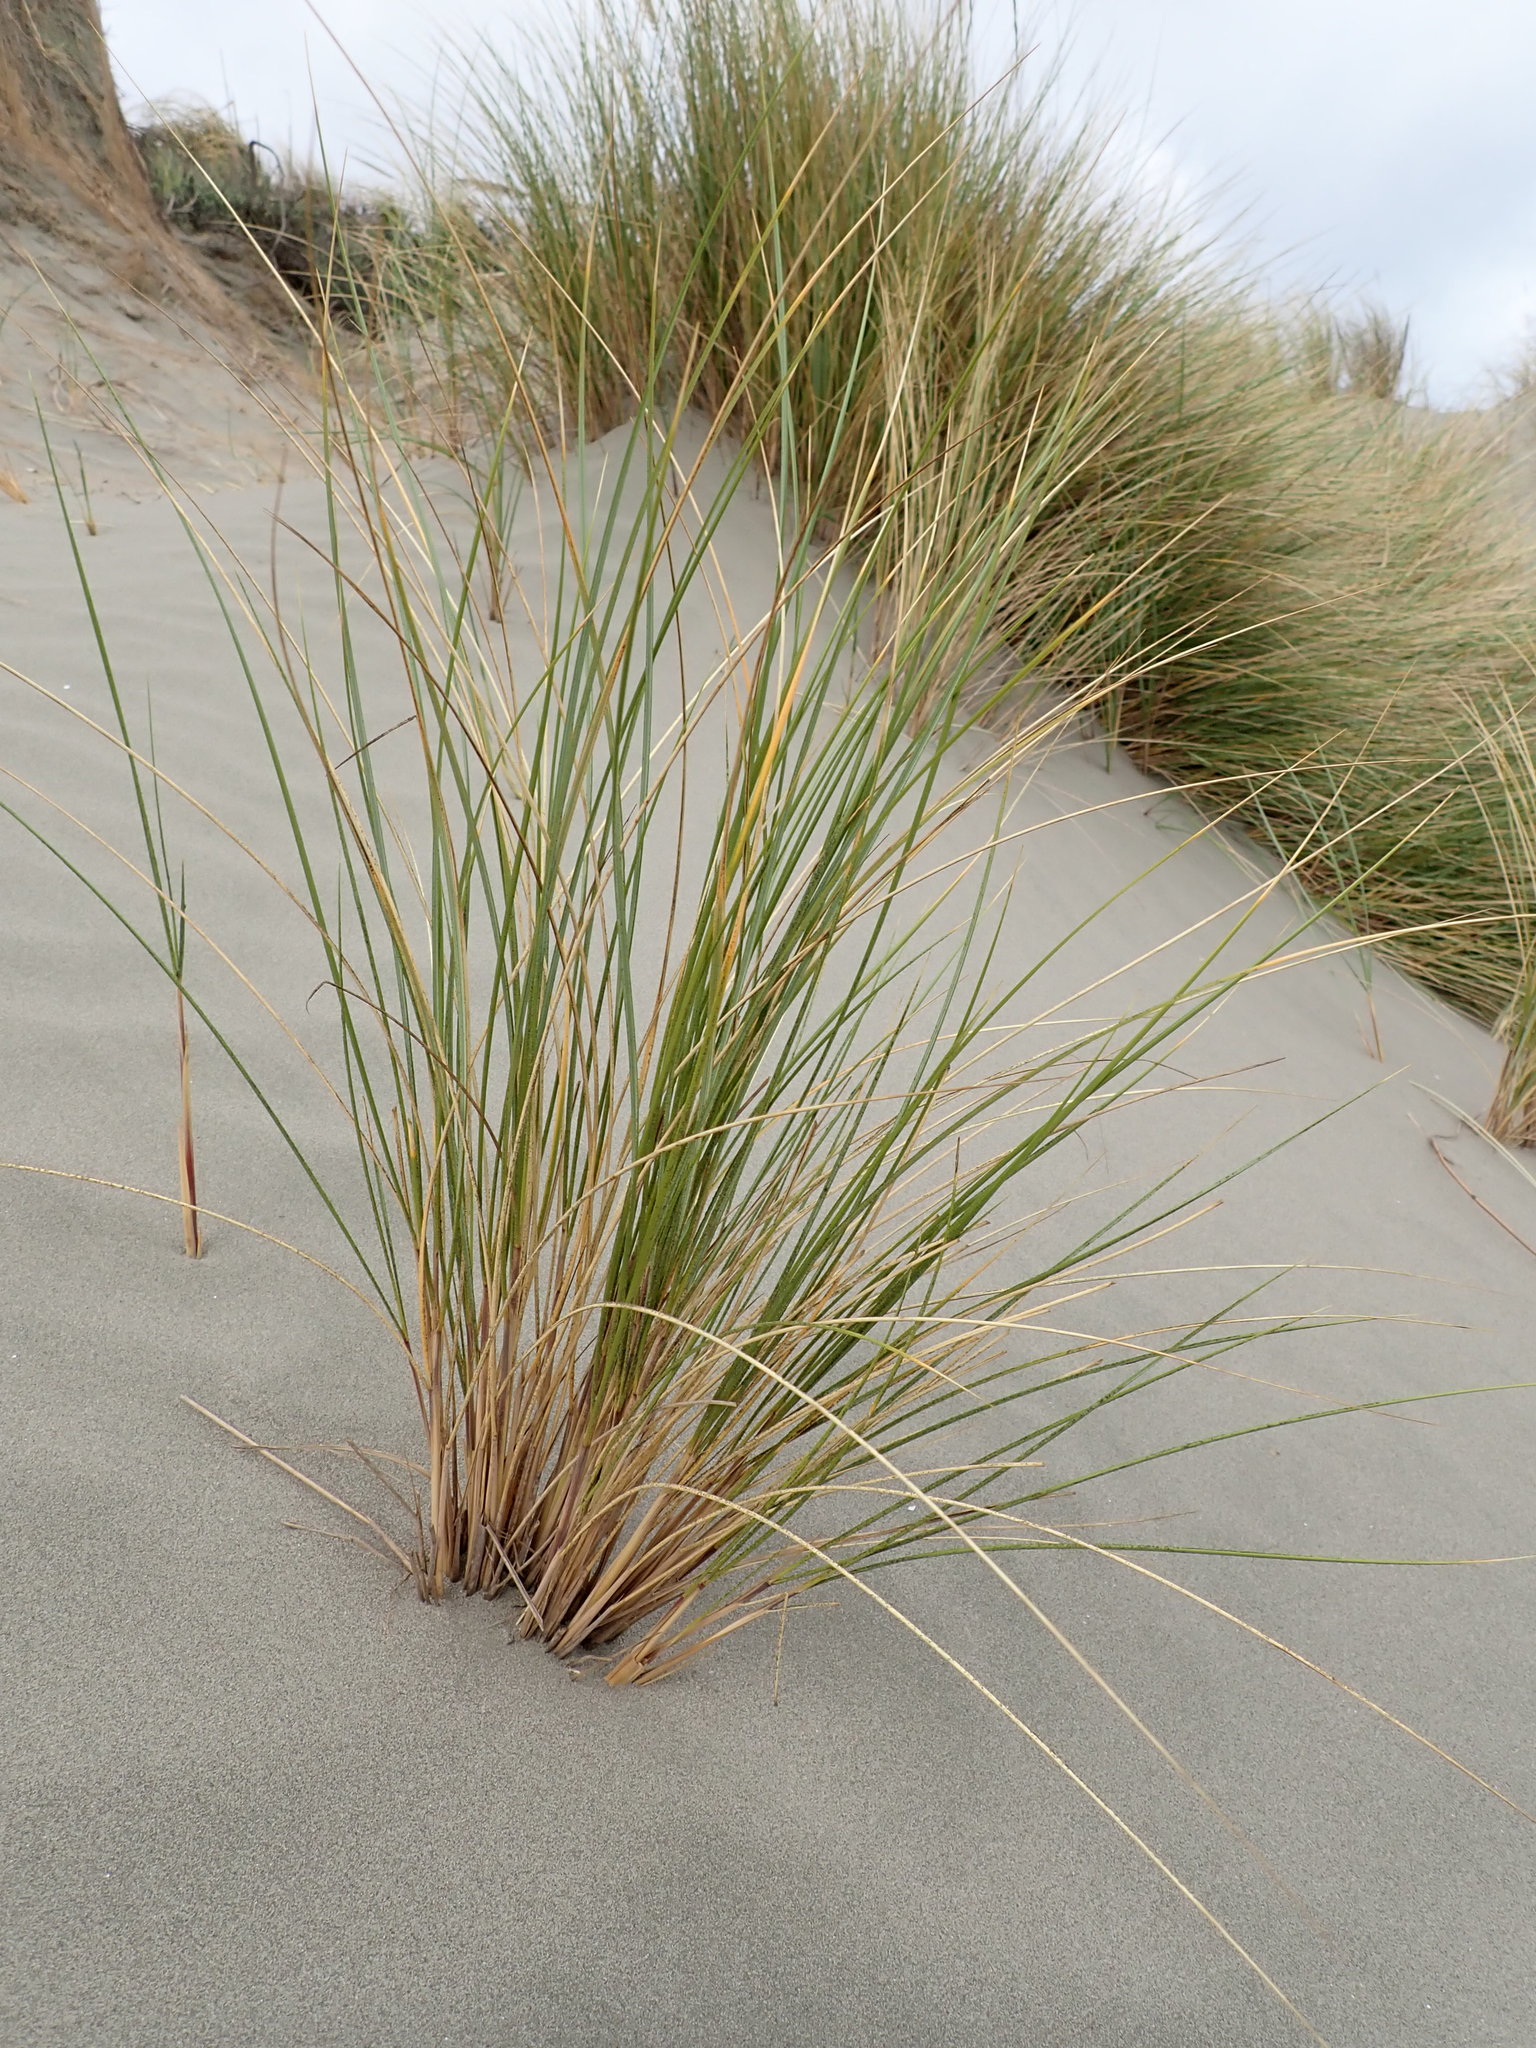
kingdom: Plantae
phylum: Tracheophyta
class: Liliopsida
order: Poales
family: Poaceae
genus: Calamagrostis
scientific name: Calamagrostis arenaria
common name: European beachgrass
